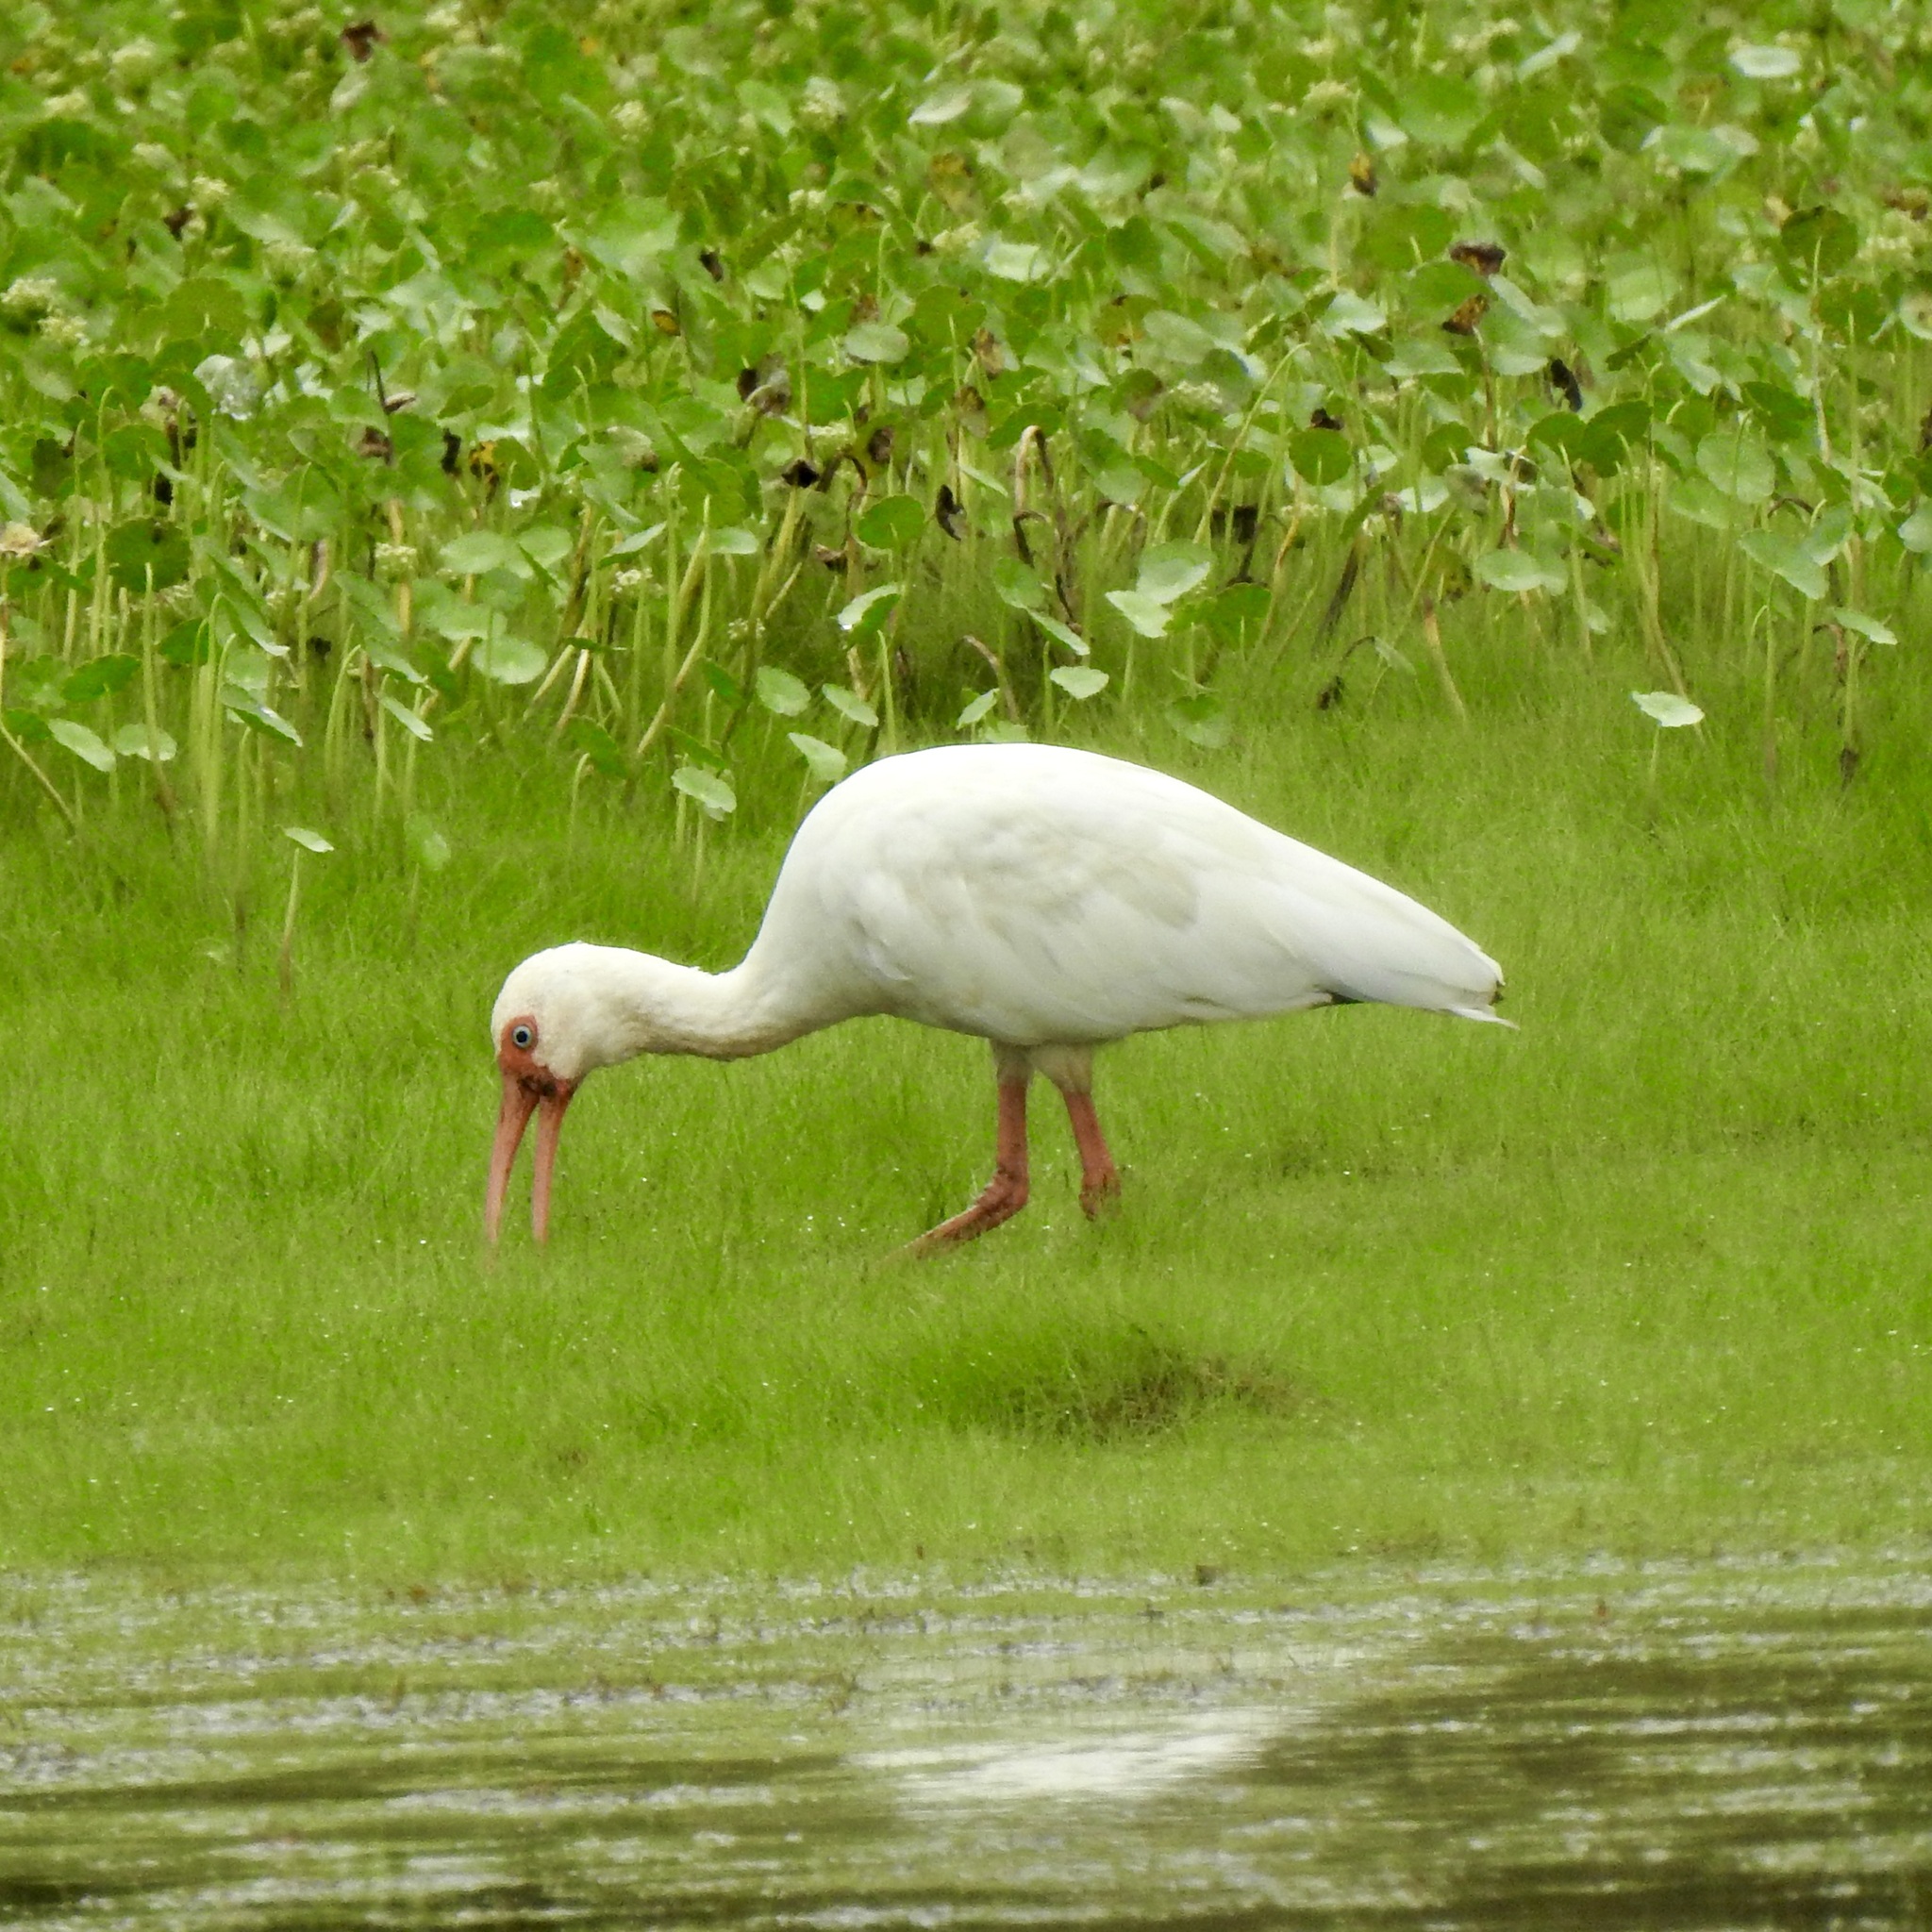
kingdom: Animalia
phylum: Chordata
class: Aves
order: Pelecaniformes
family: Threskiornithidae
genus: Eudocimus
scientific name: Eudocimus albus
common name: White ibis
